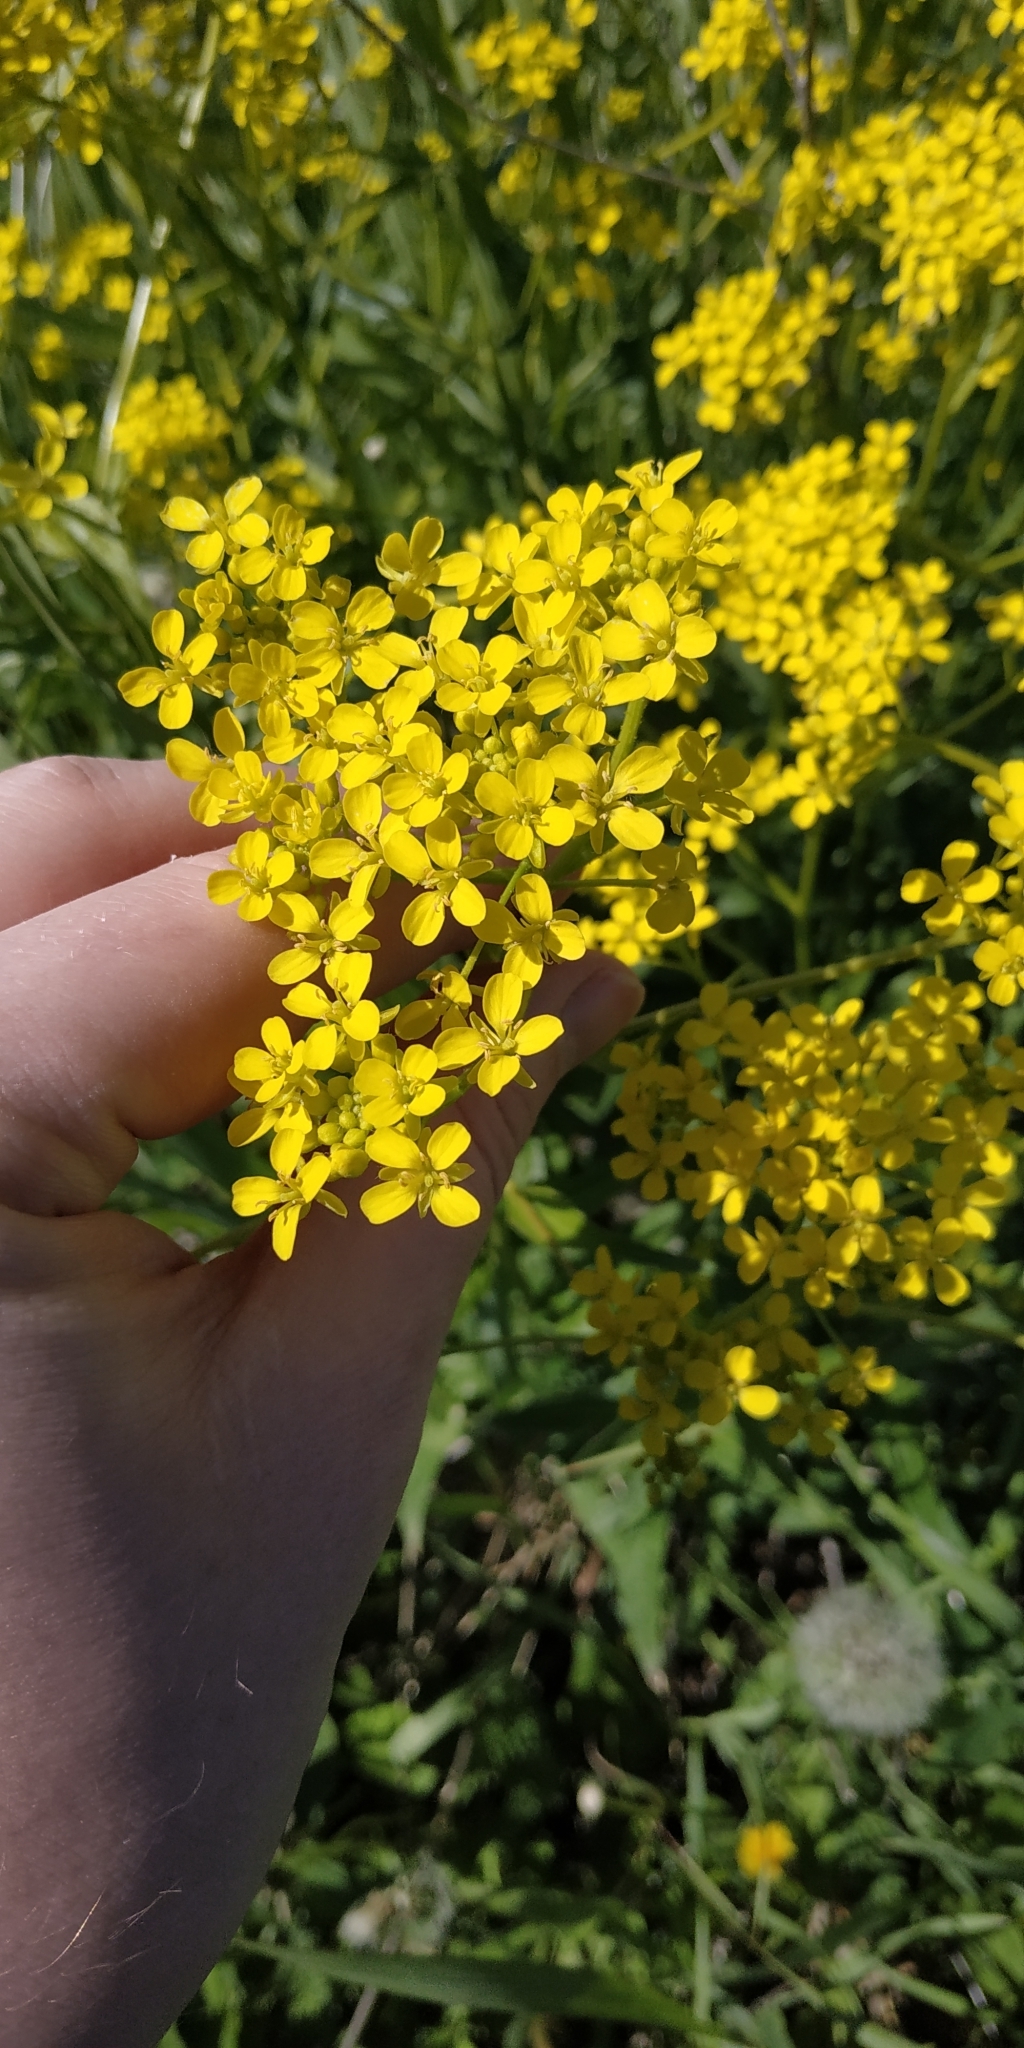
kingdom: Plantae
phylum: Tracheophyta
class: Magnoliopsida
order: Brassicales
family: Brassicaceae
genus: Bunias
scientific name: Bunias orientalis
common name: Warty-cabbage
